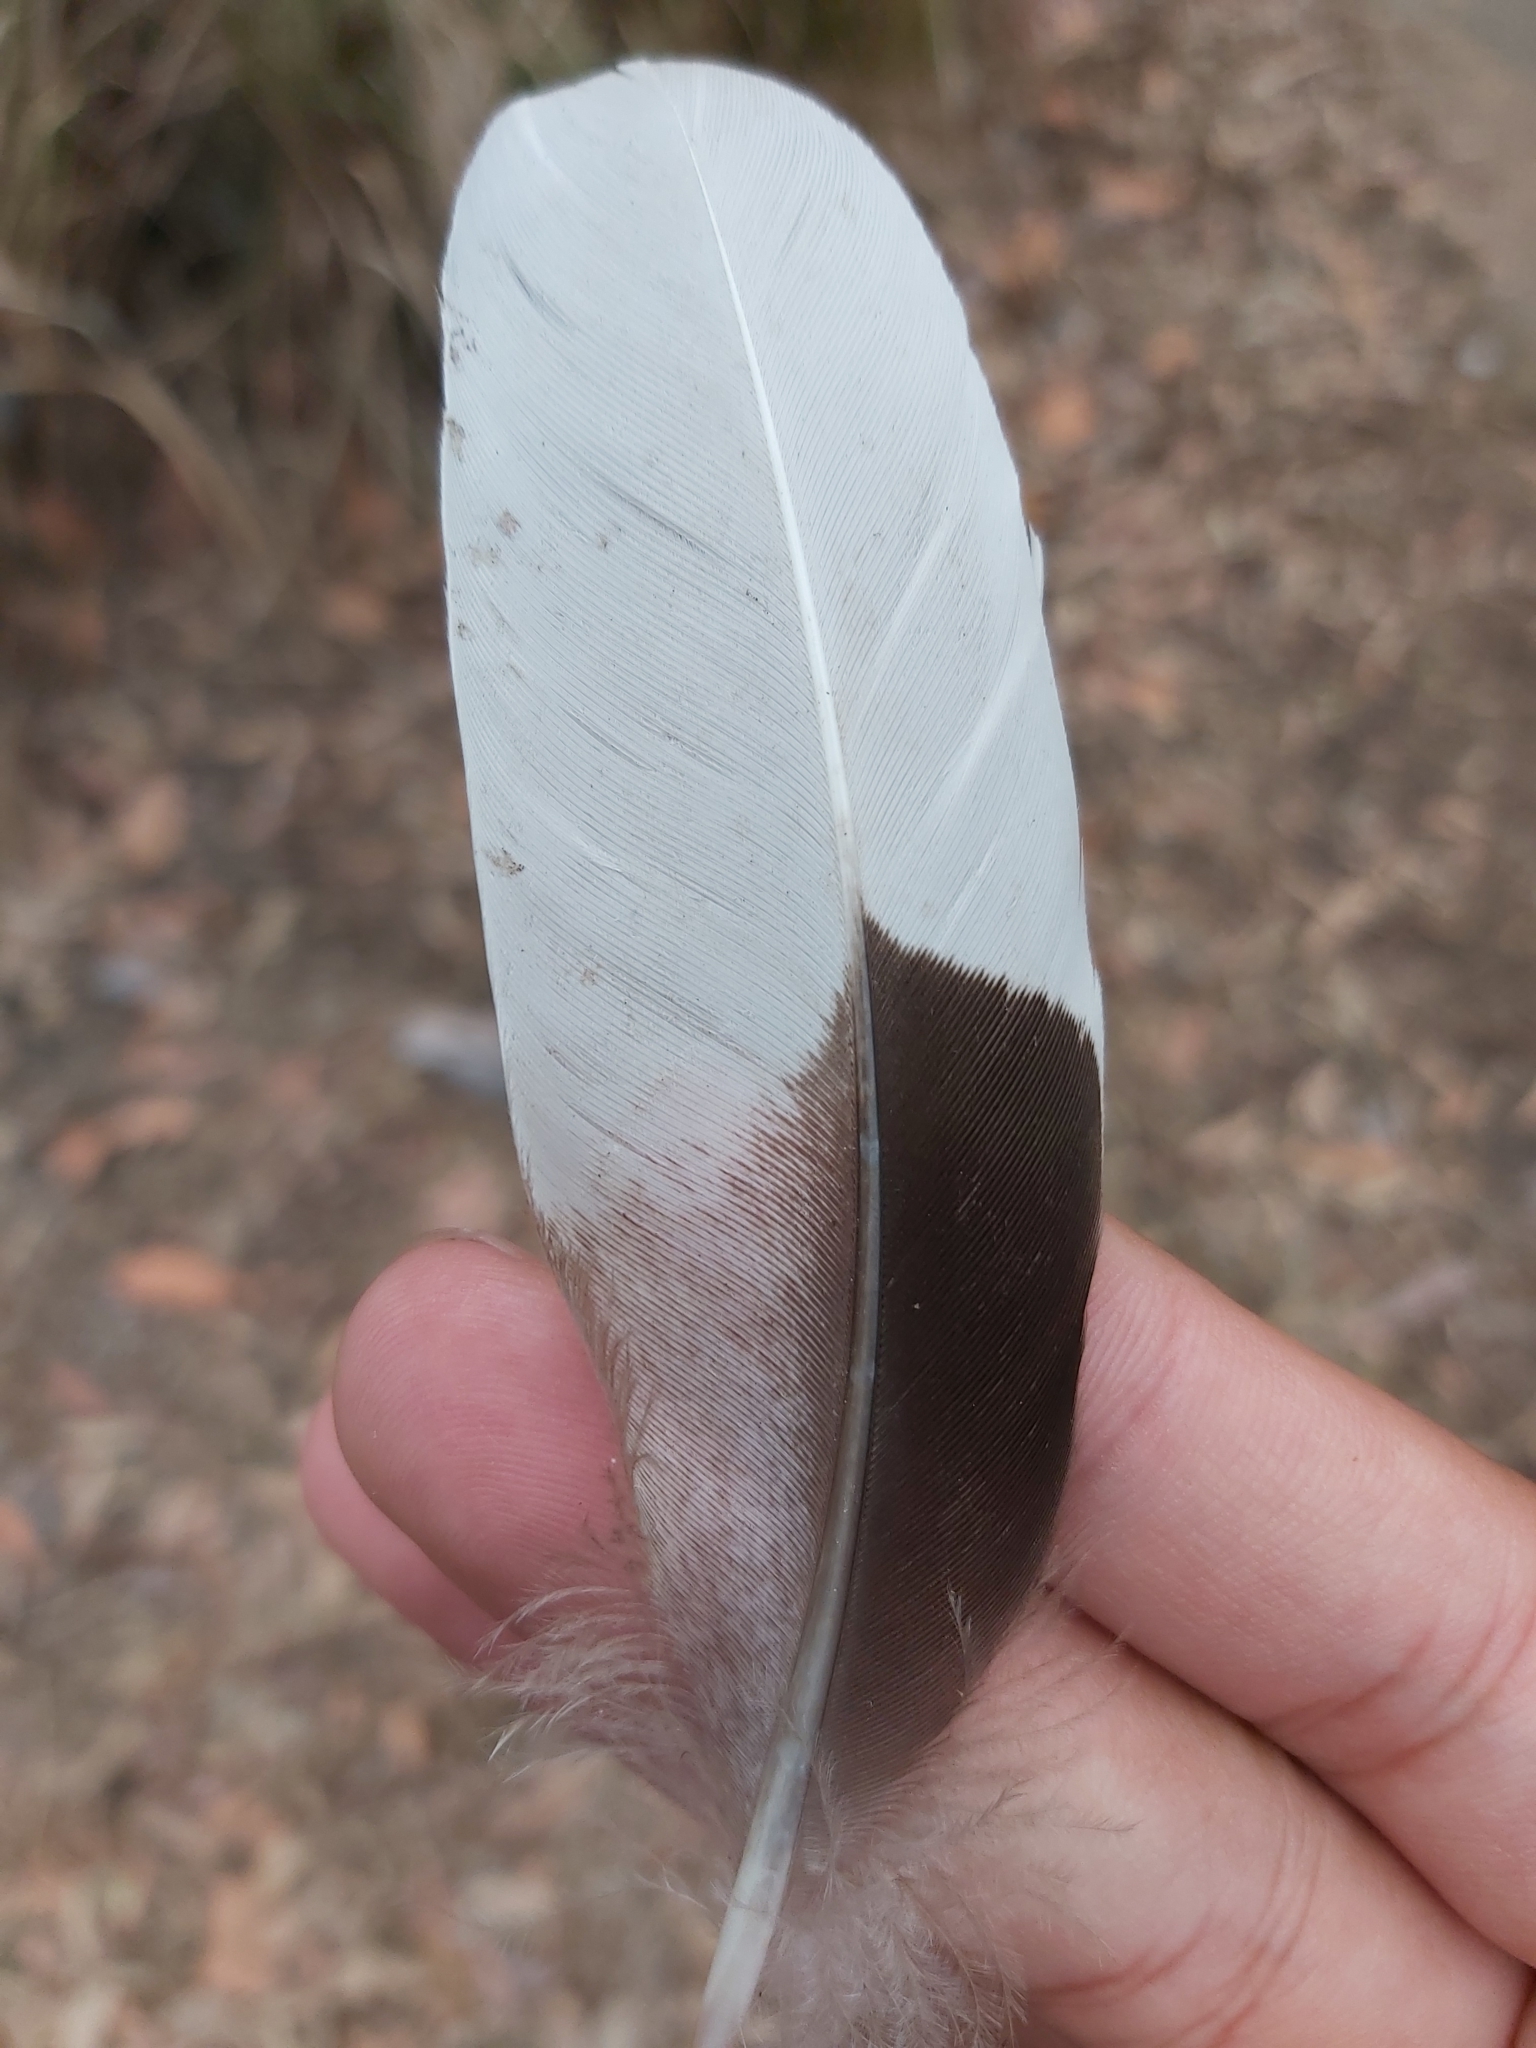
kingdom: Animalia
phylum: Chordata
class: Aves
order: Anseriformes
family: Anatidae
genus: Chenonetta
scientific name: Chenonetta jubata
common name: Maned duck
